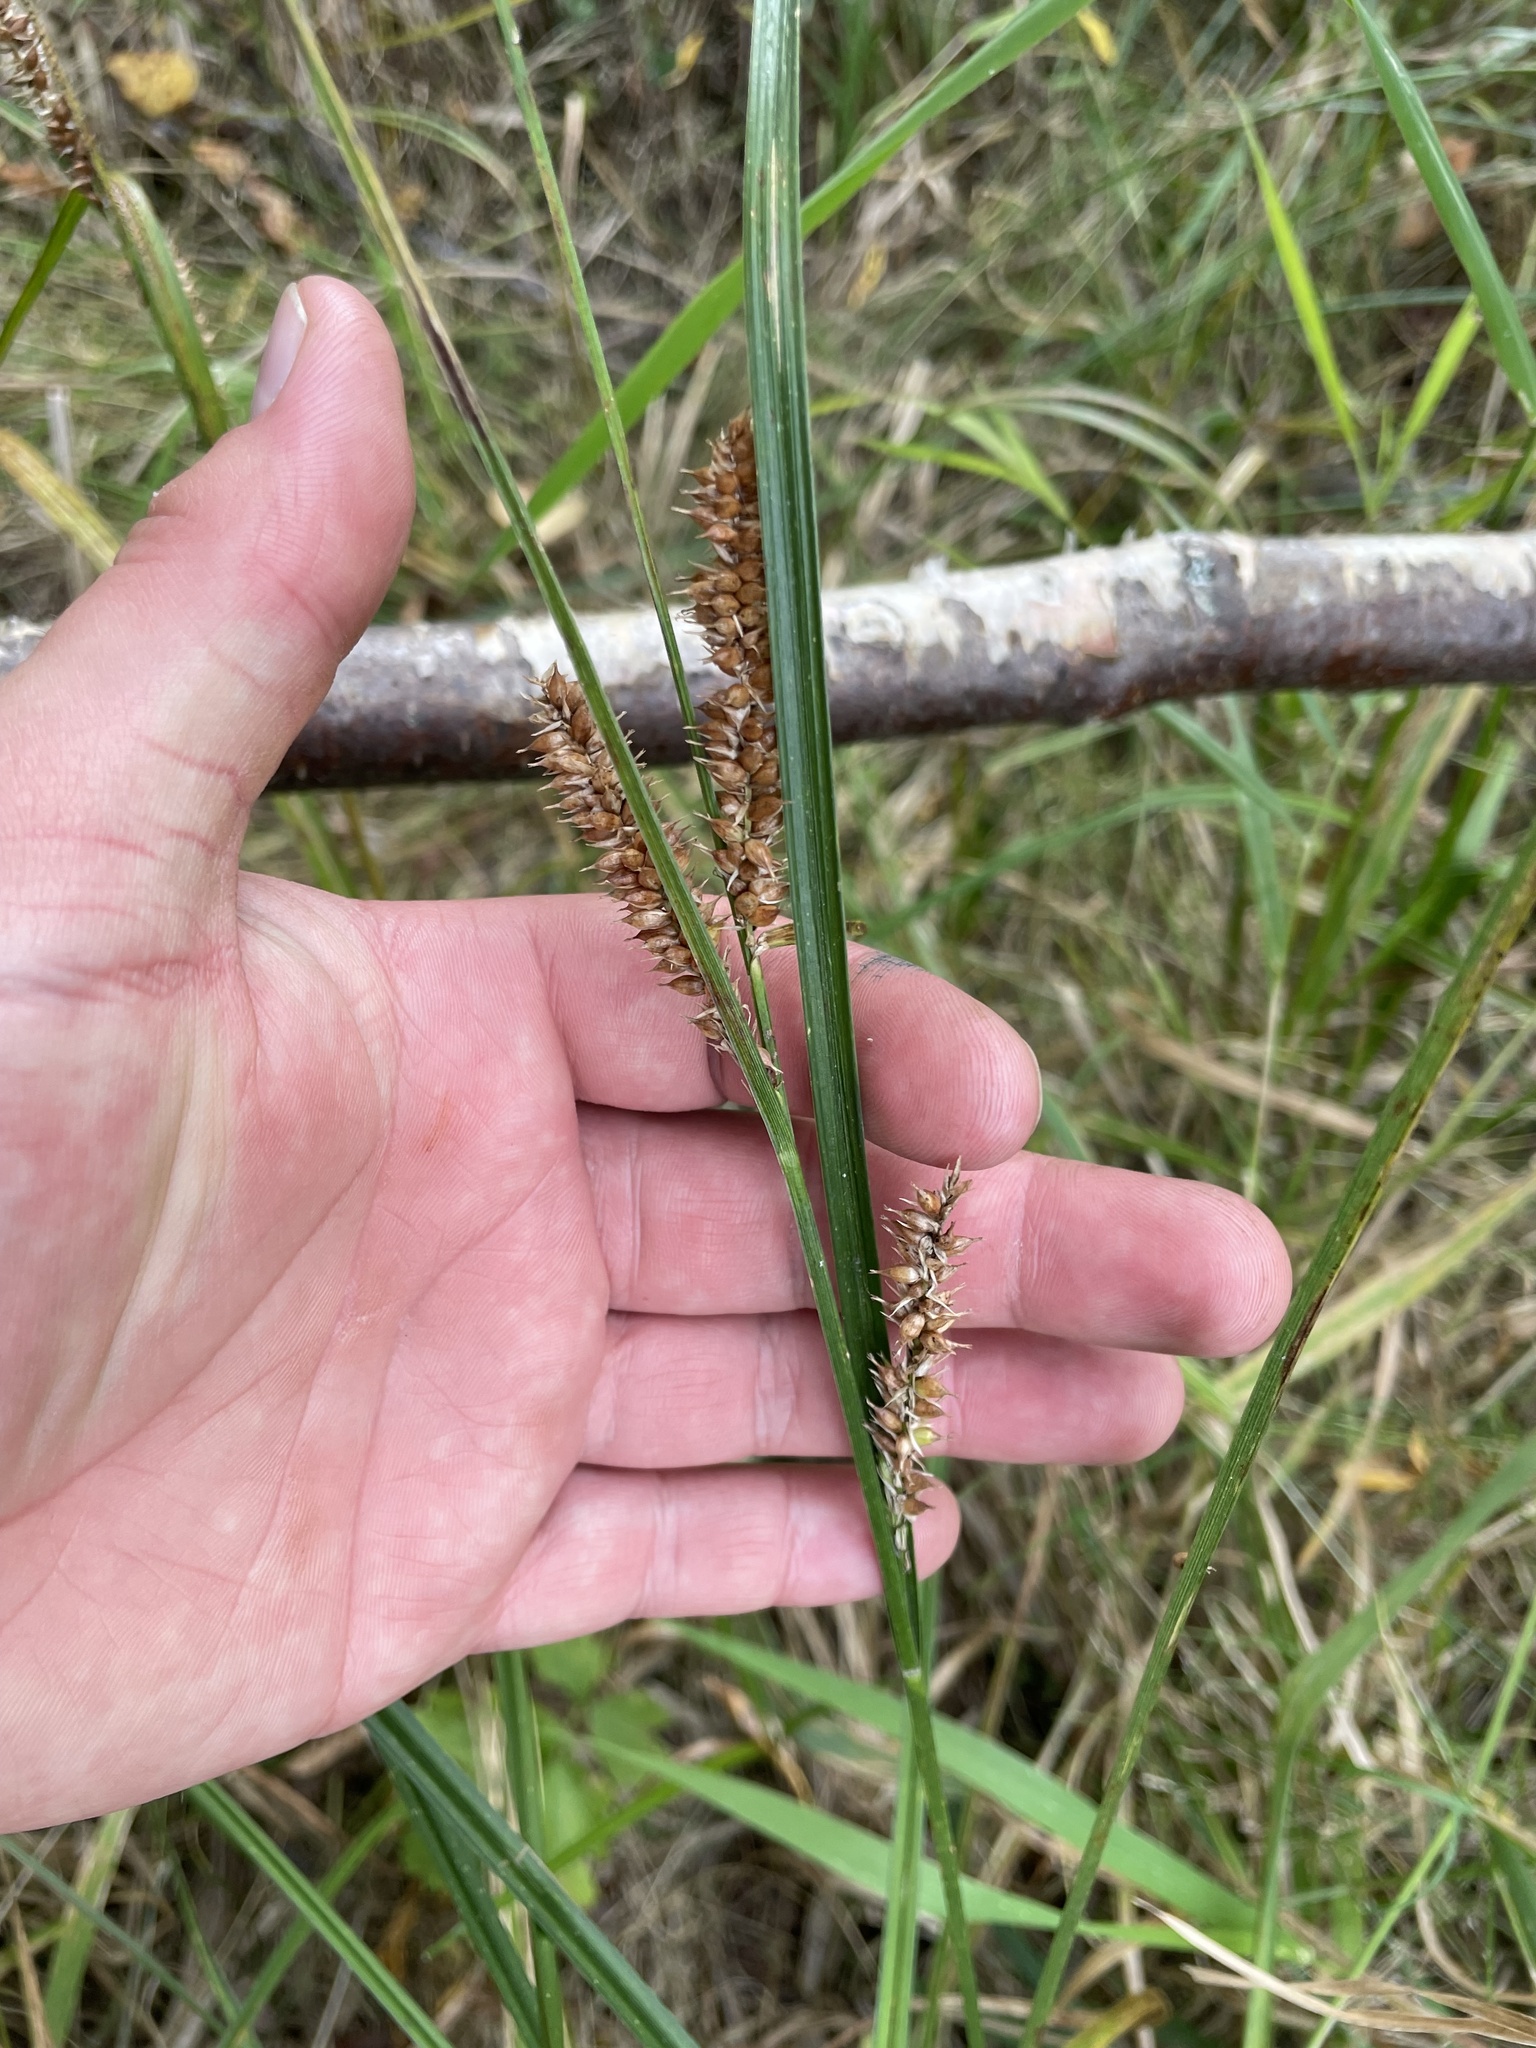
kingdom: Plantae
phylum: Tracheophyta
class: Liliopsida
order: Poales
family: Cyperaceae
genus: Carex
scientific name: Carex utriculata
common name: Beaked sedge
